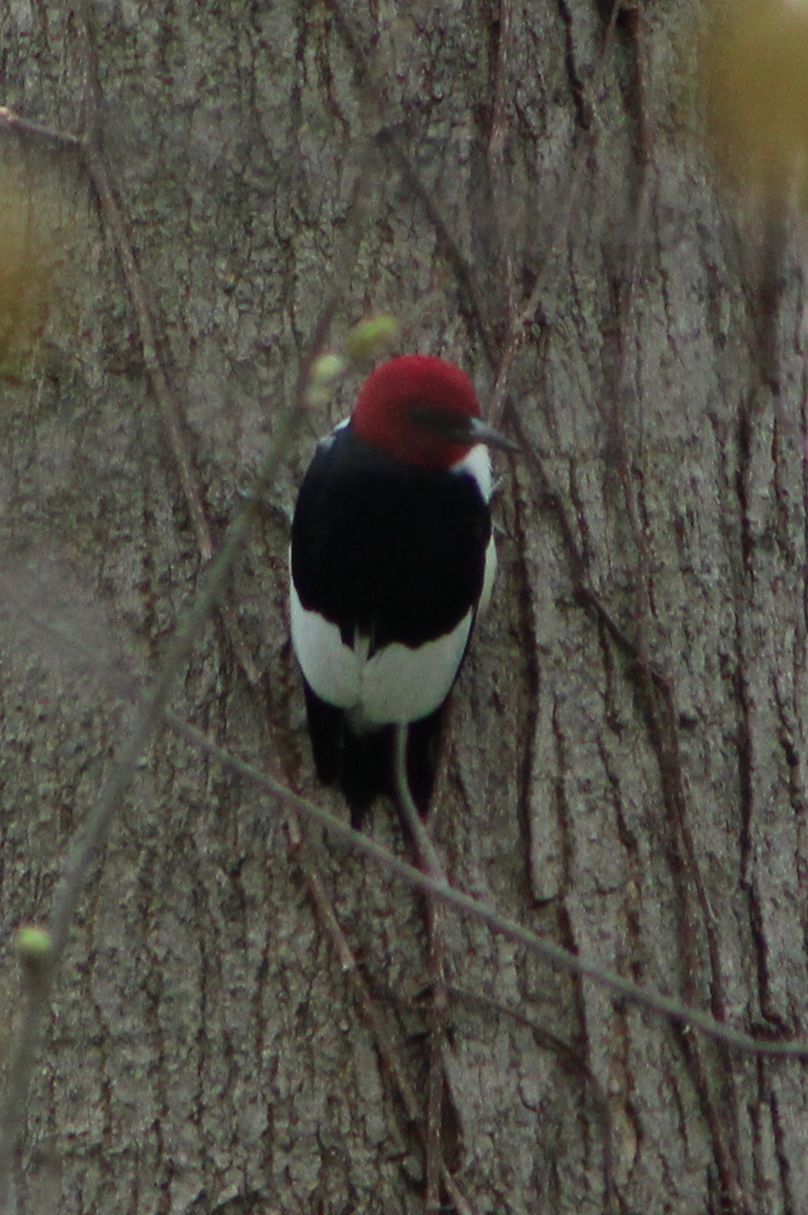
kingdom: Animalia
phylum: Chordata
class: Aves
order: Piciformes
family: Picidae
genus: Melanerpes
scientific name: Melanerpes erythrocephalus
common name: Red-headed woodpecker
